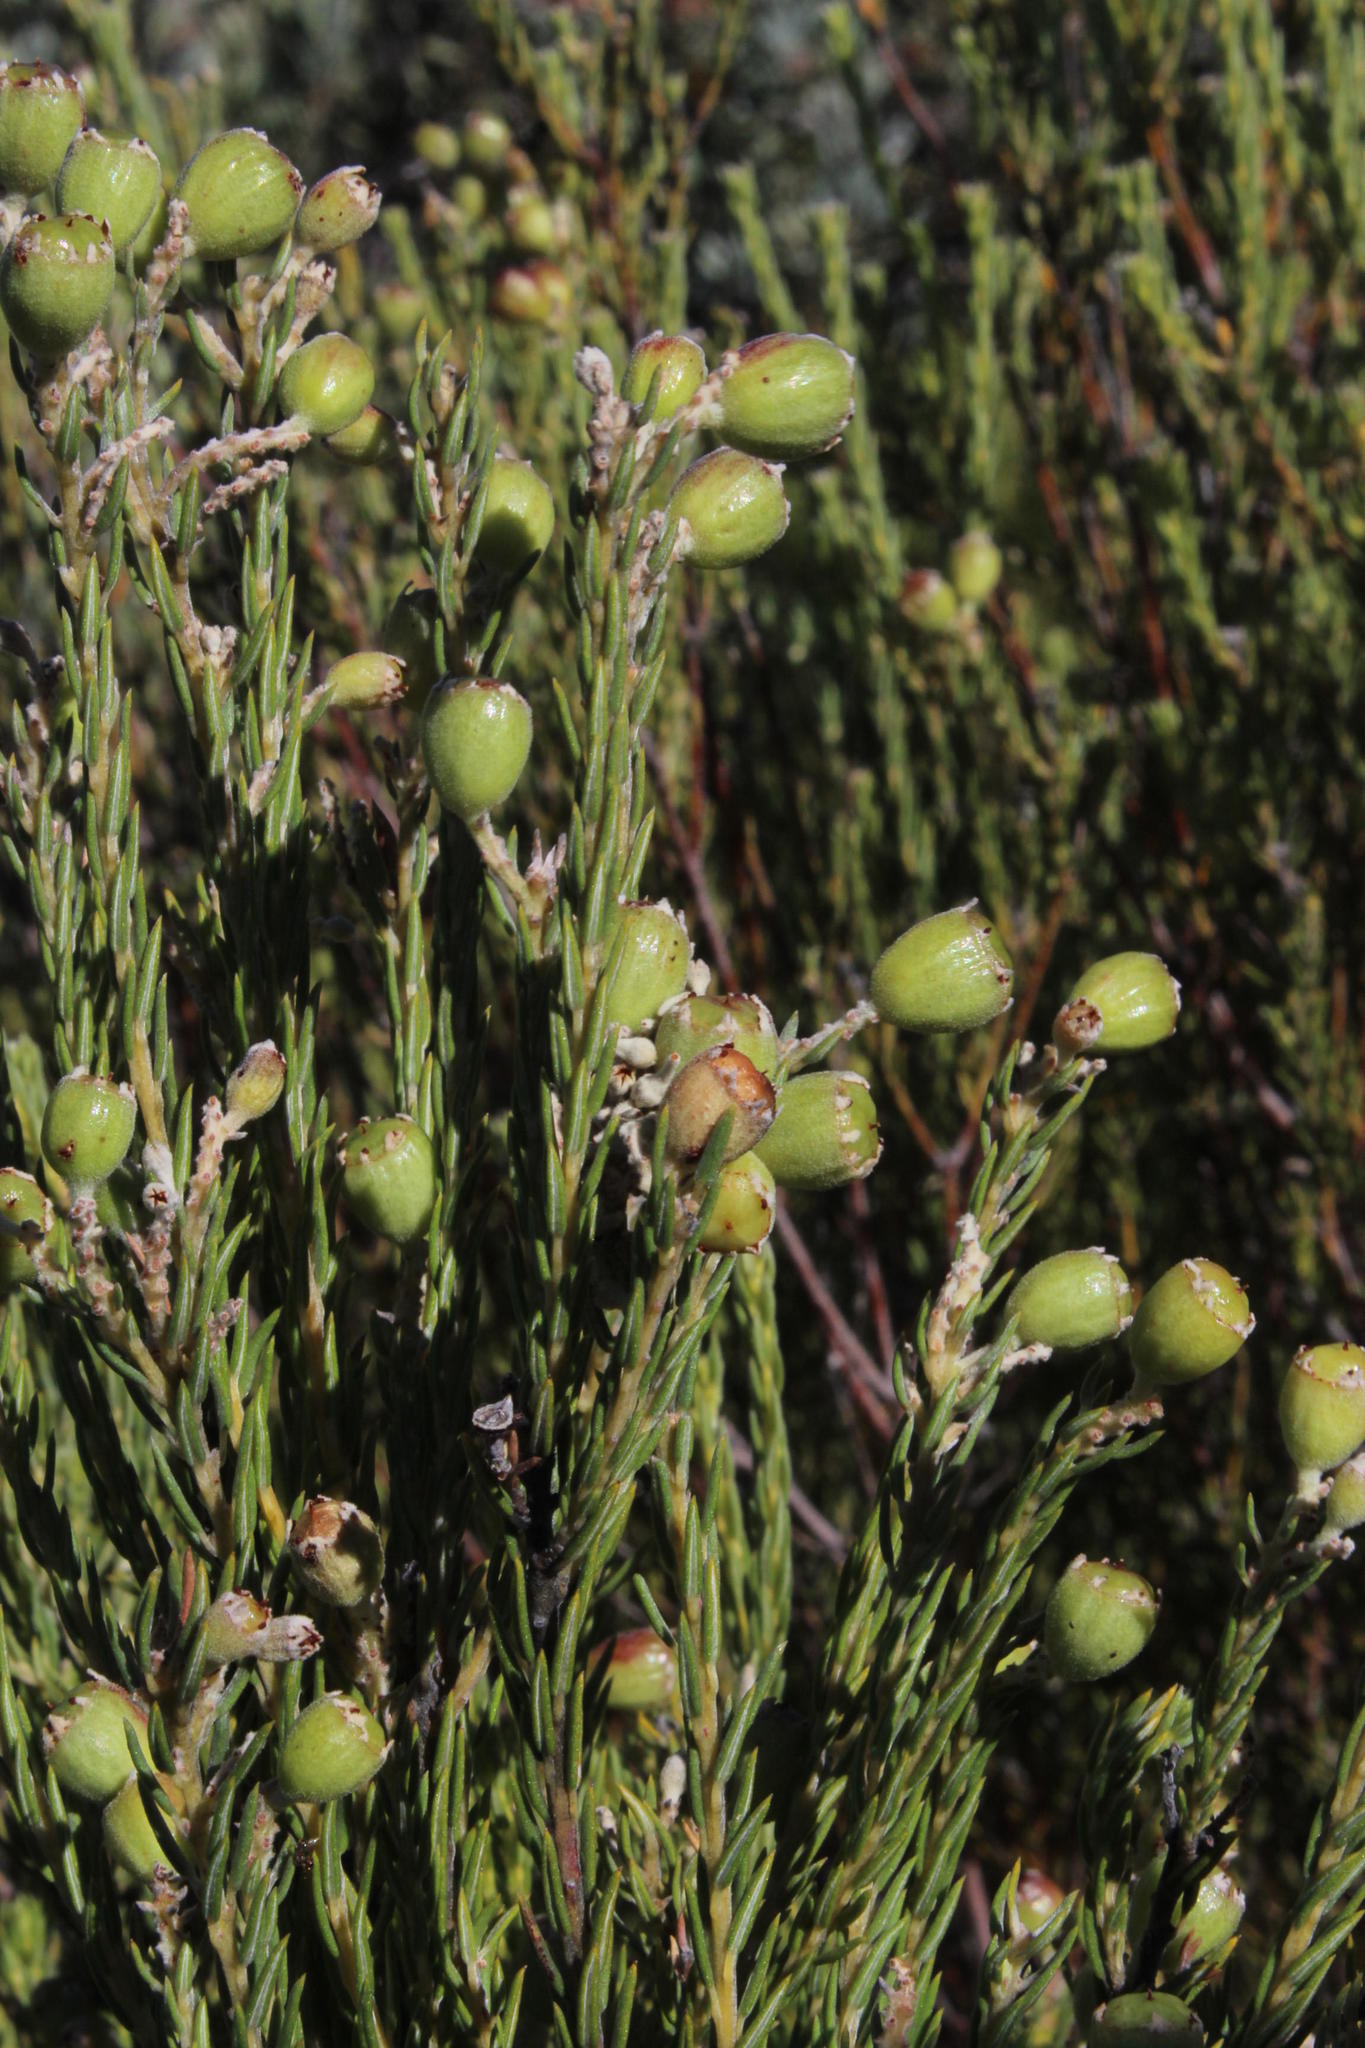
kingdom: Plantae
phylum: Tracheophyta
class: Magnoliopsida
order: Rosales
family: Rhamnaceae
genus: Phylica
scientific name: Phylica rigidifolia
